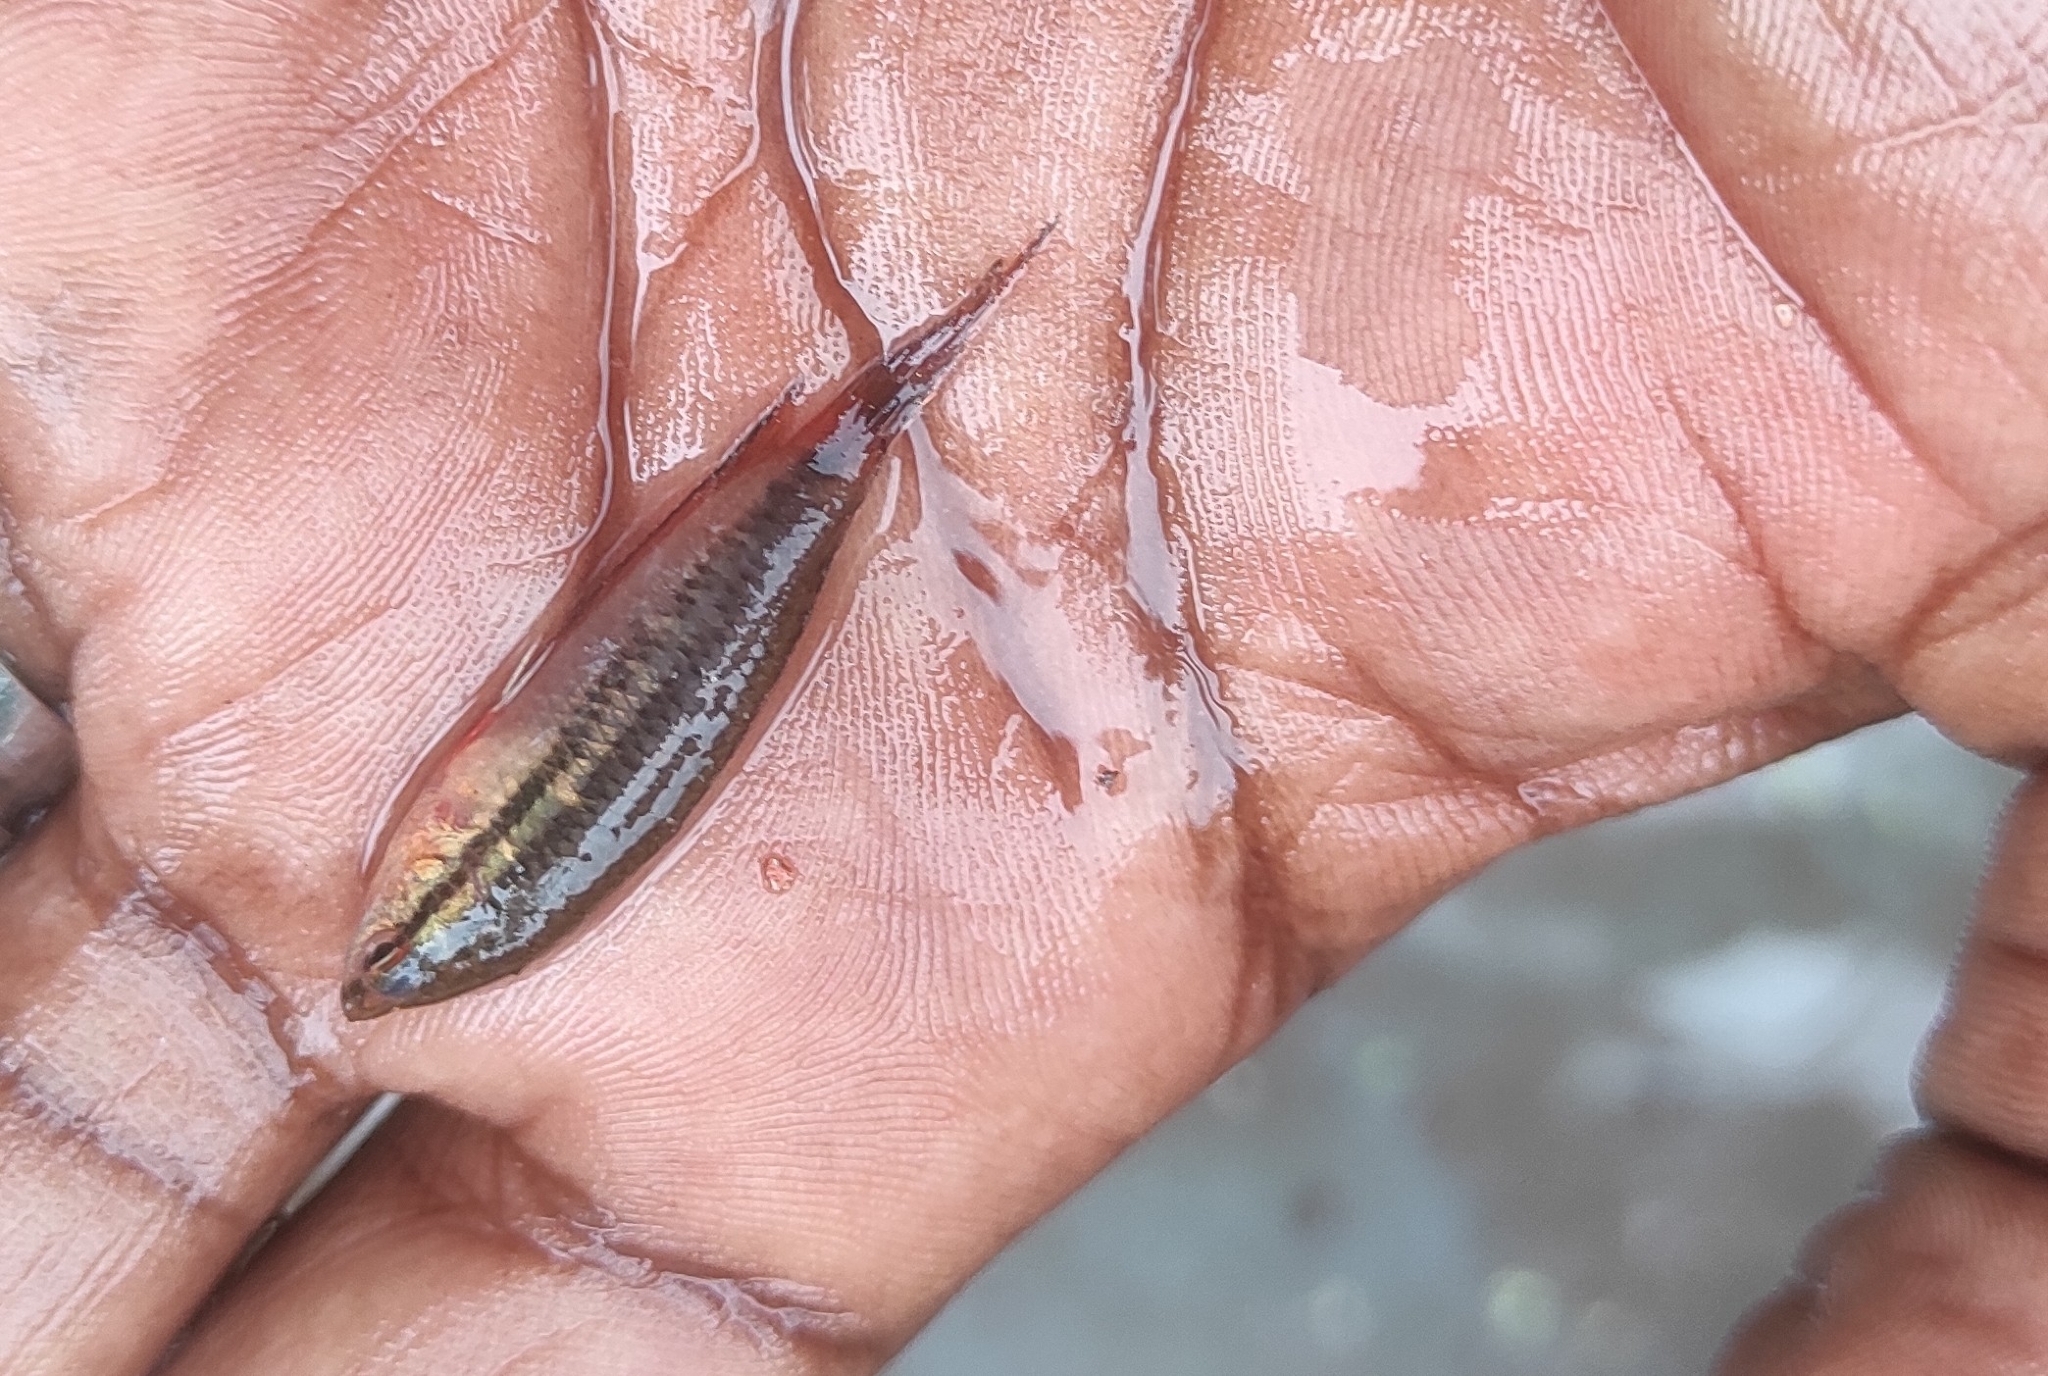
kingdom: Animalia
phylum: Chordata
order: Perciformes
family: Osphronemidae
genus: Pseudosphromenus
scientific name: Pseudosphromenus dayi
